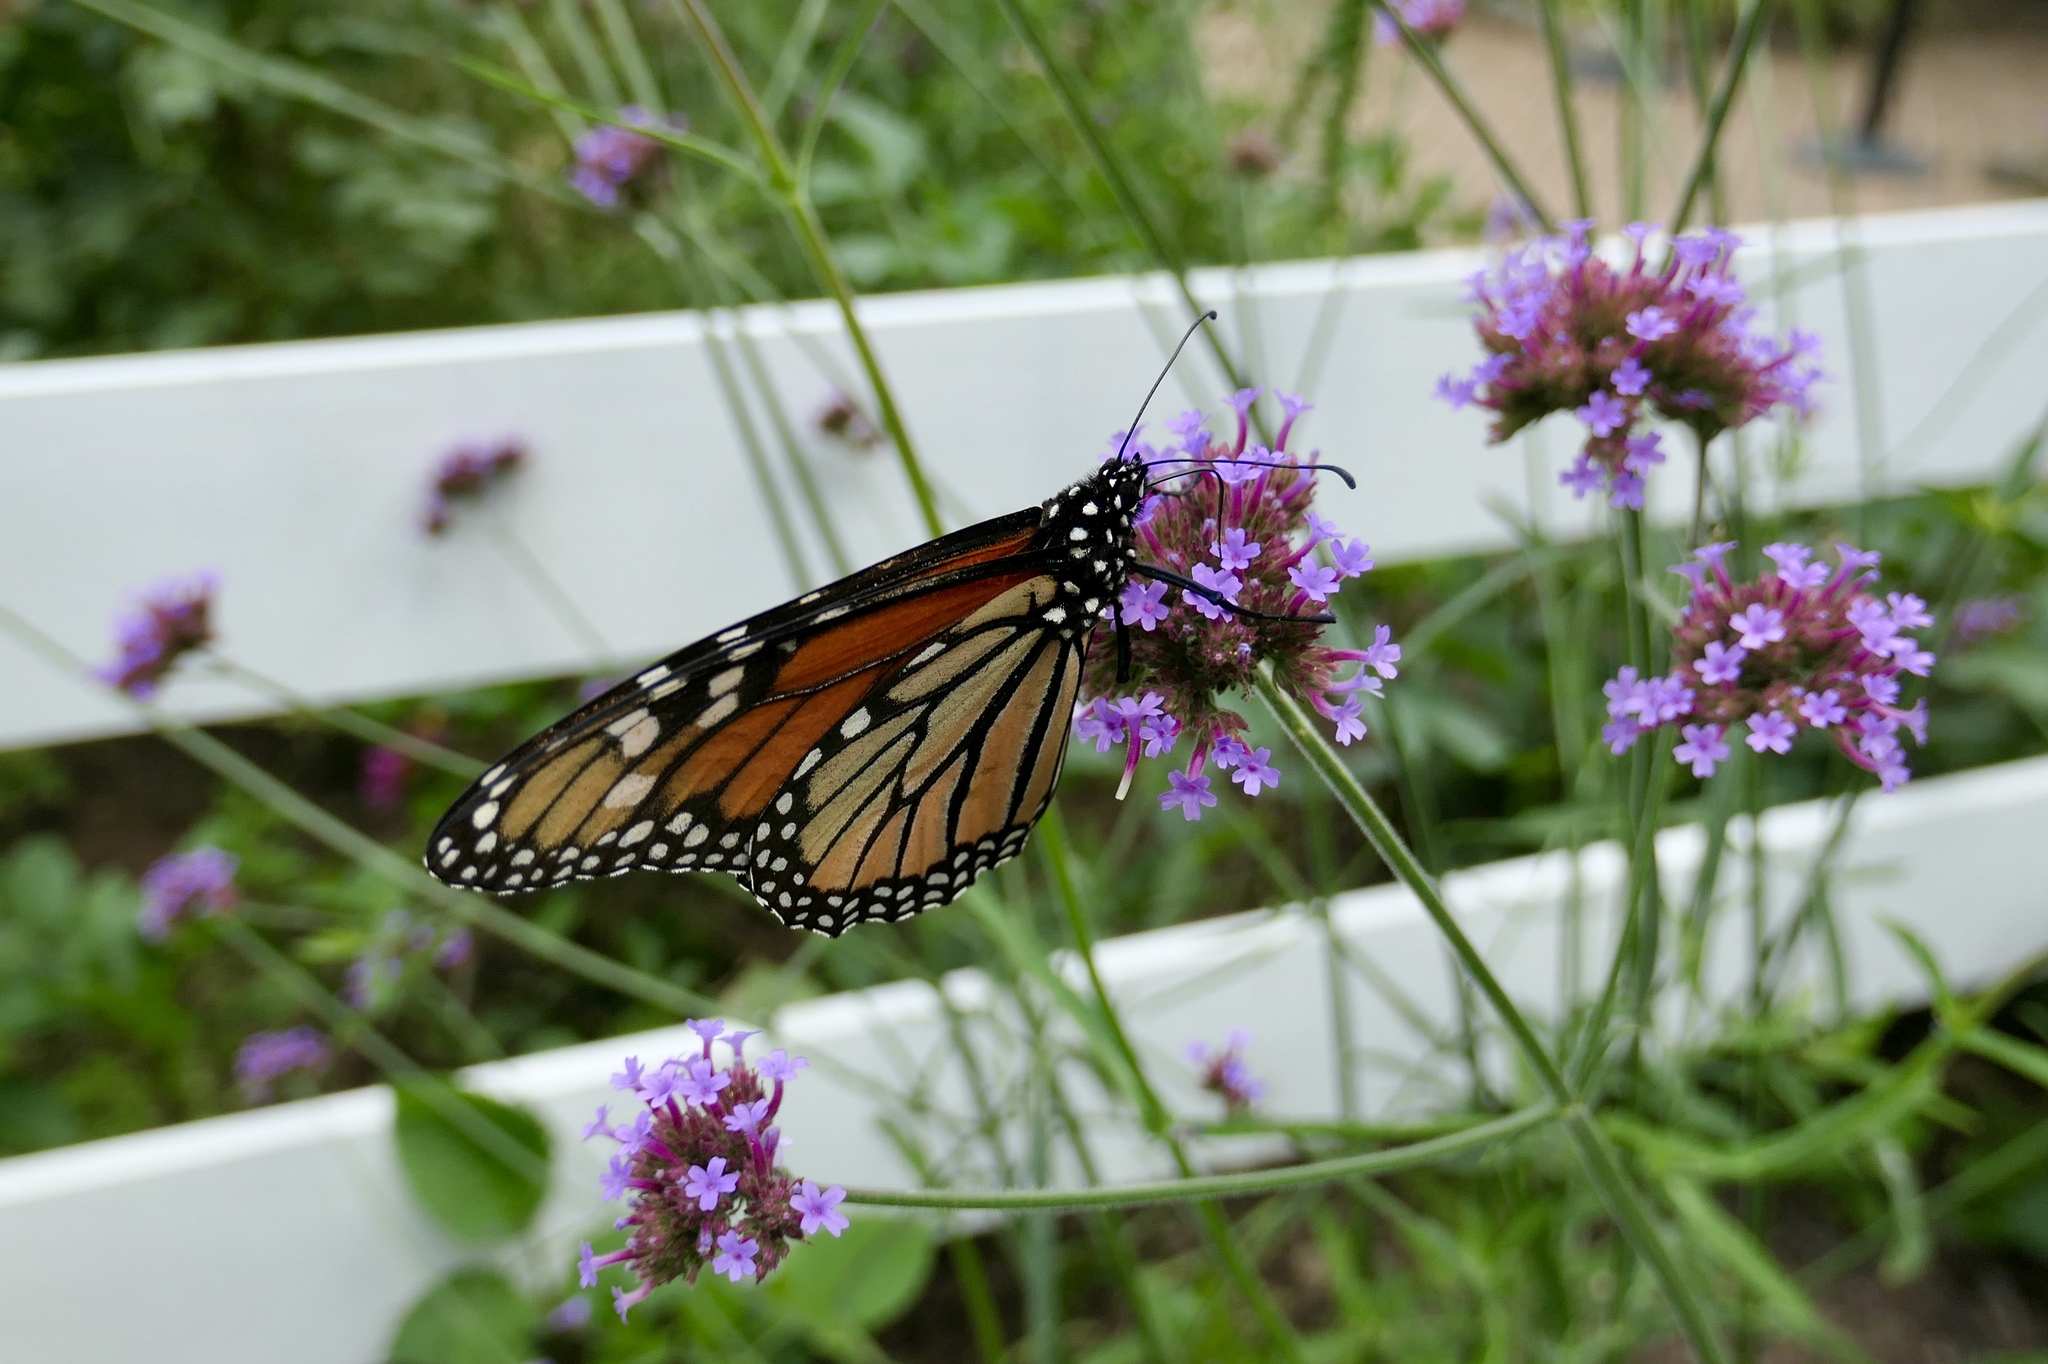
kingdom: Animalia
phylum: Arthropoda
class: Insecta
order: Lepidoptera
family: Nymphalidae
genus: Danaus
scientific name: Danaus plexippus
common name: Monarch
